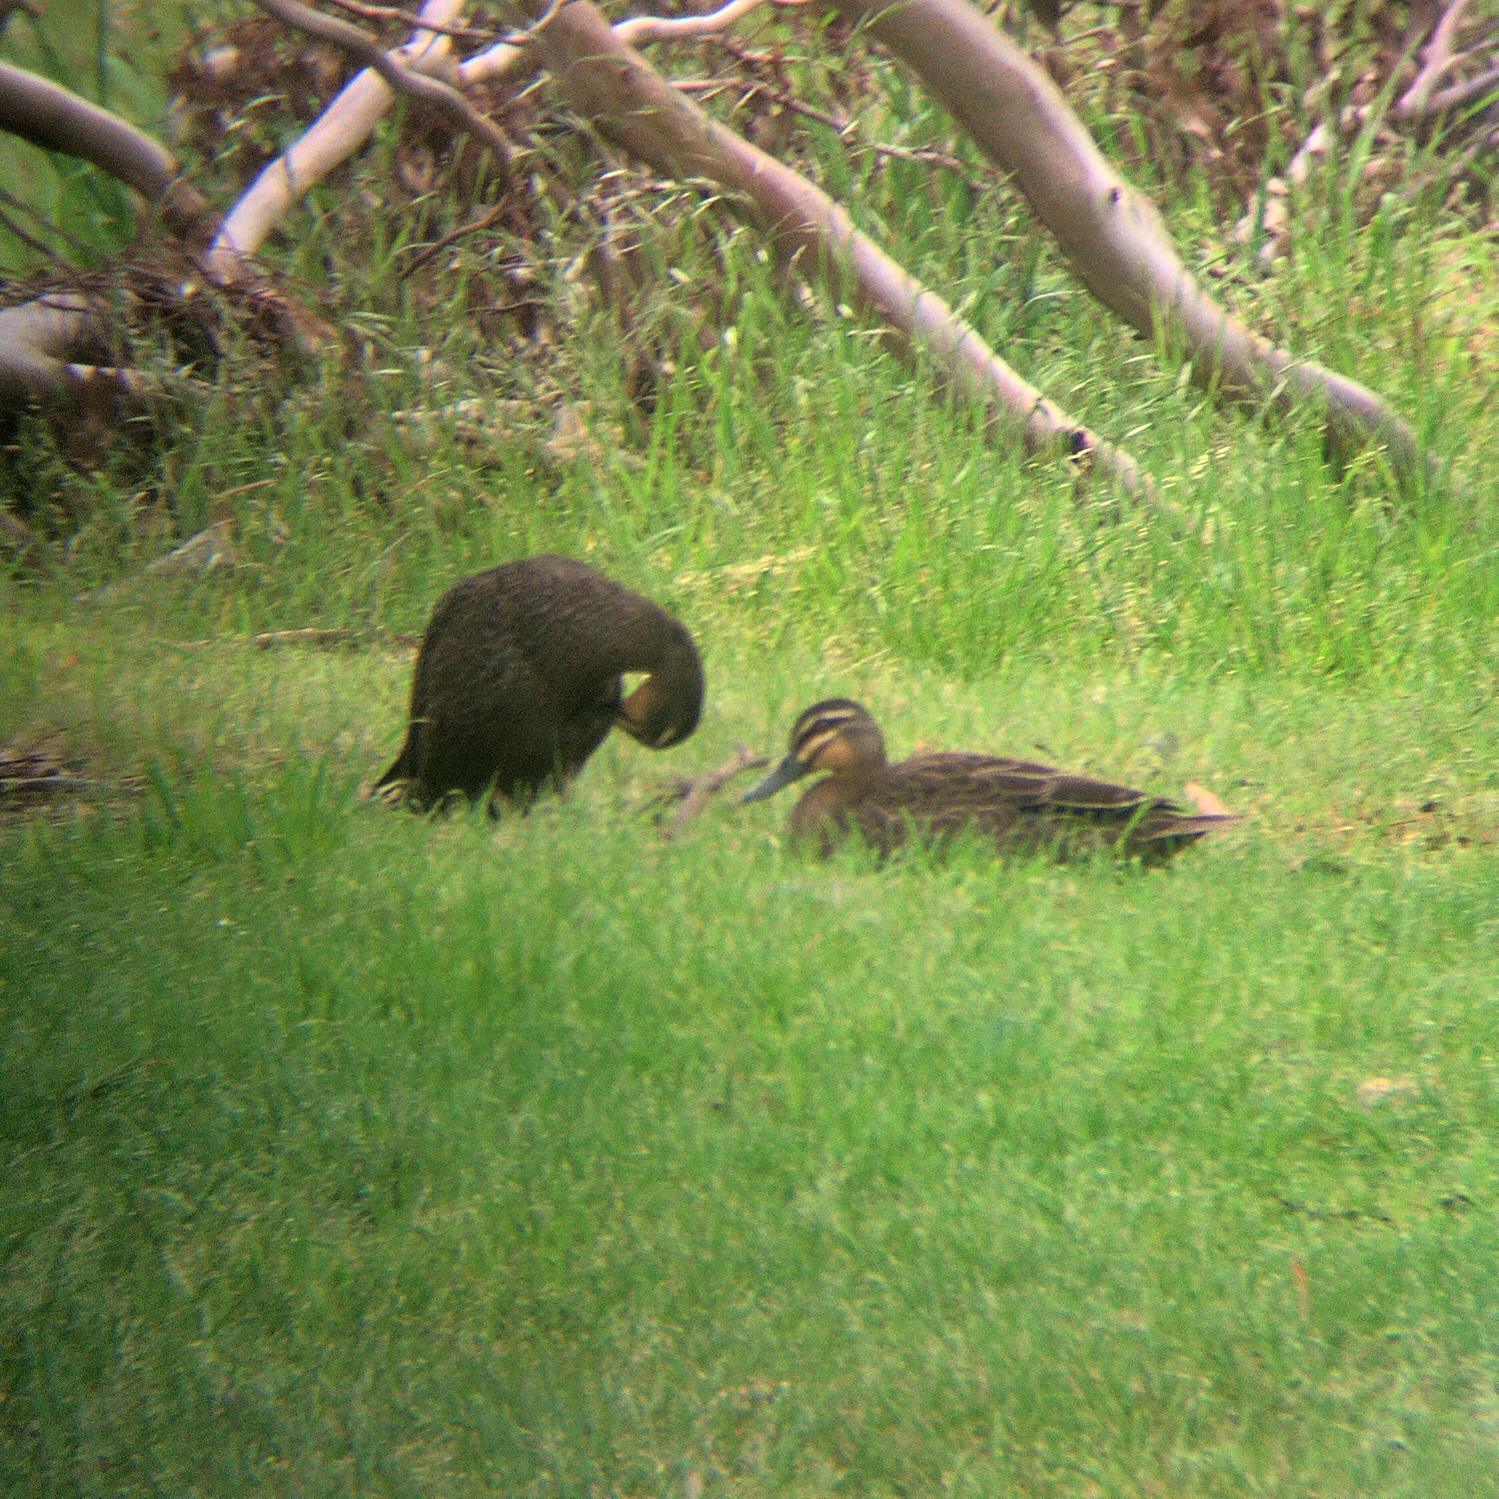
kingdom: Animalia
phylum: Chordata
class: Aves
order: Anseriformes
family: Anatidae
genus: Anas
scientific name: Anas superciliosa
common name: Pacific black duck
